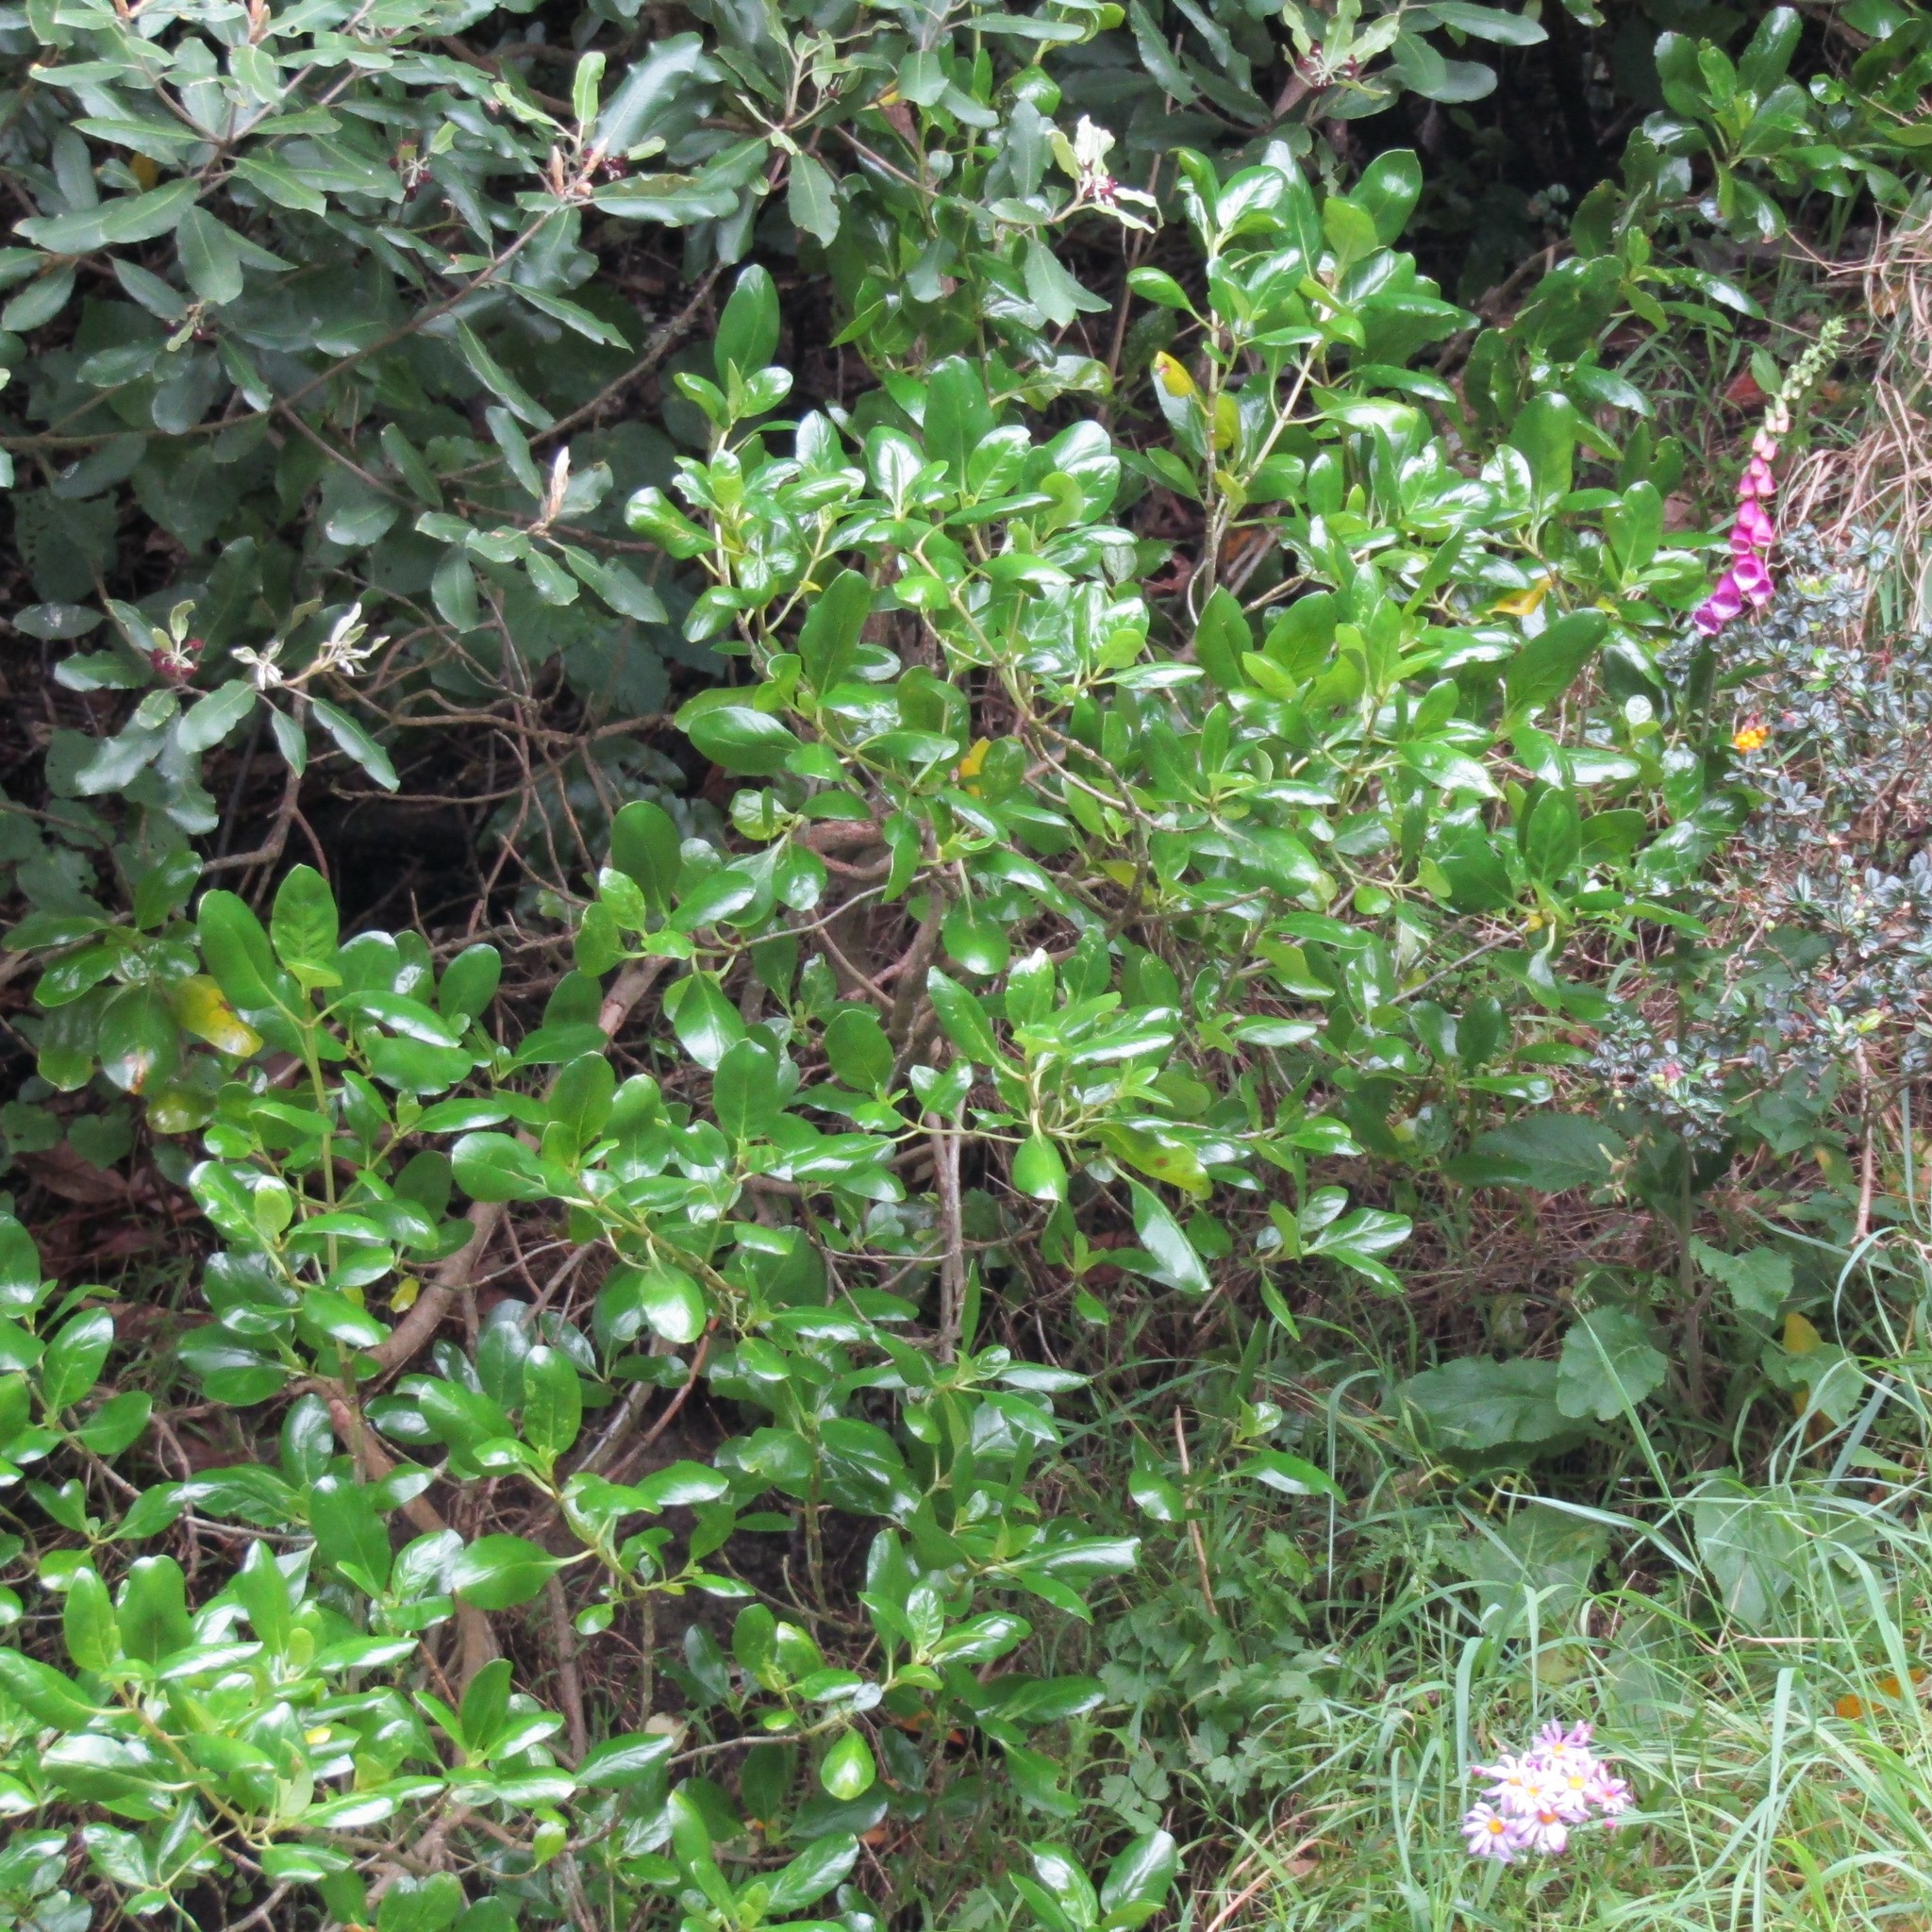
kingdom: Plantae
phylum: Tracheophyta
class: Magnoliopsida
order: Gentianales
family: Rubiaceae
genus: Coprosma
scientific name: Coprosma repens
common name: Tree bedstraw
